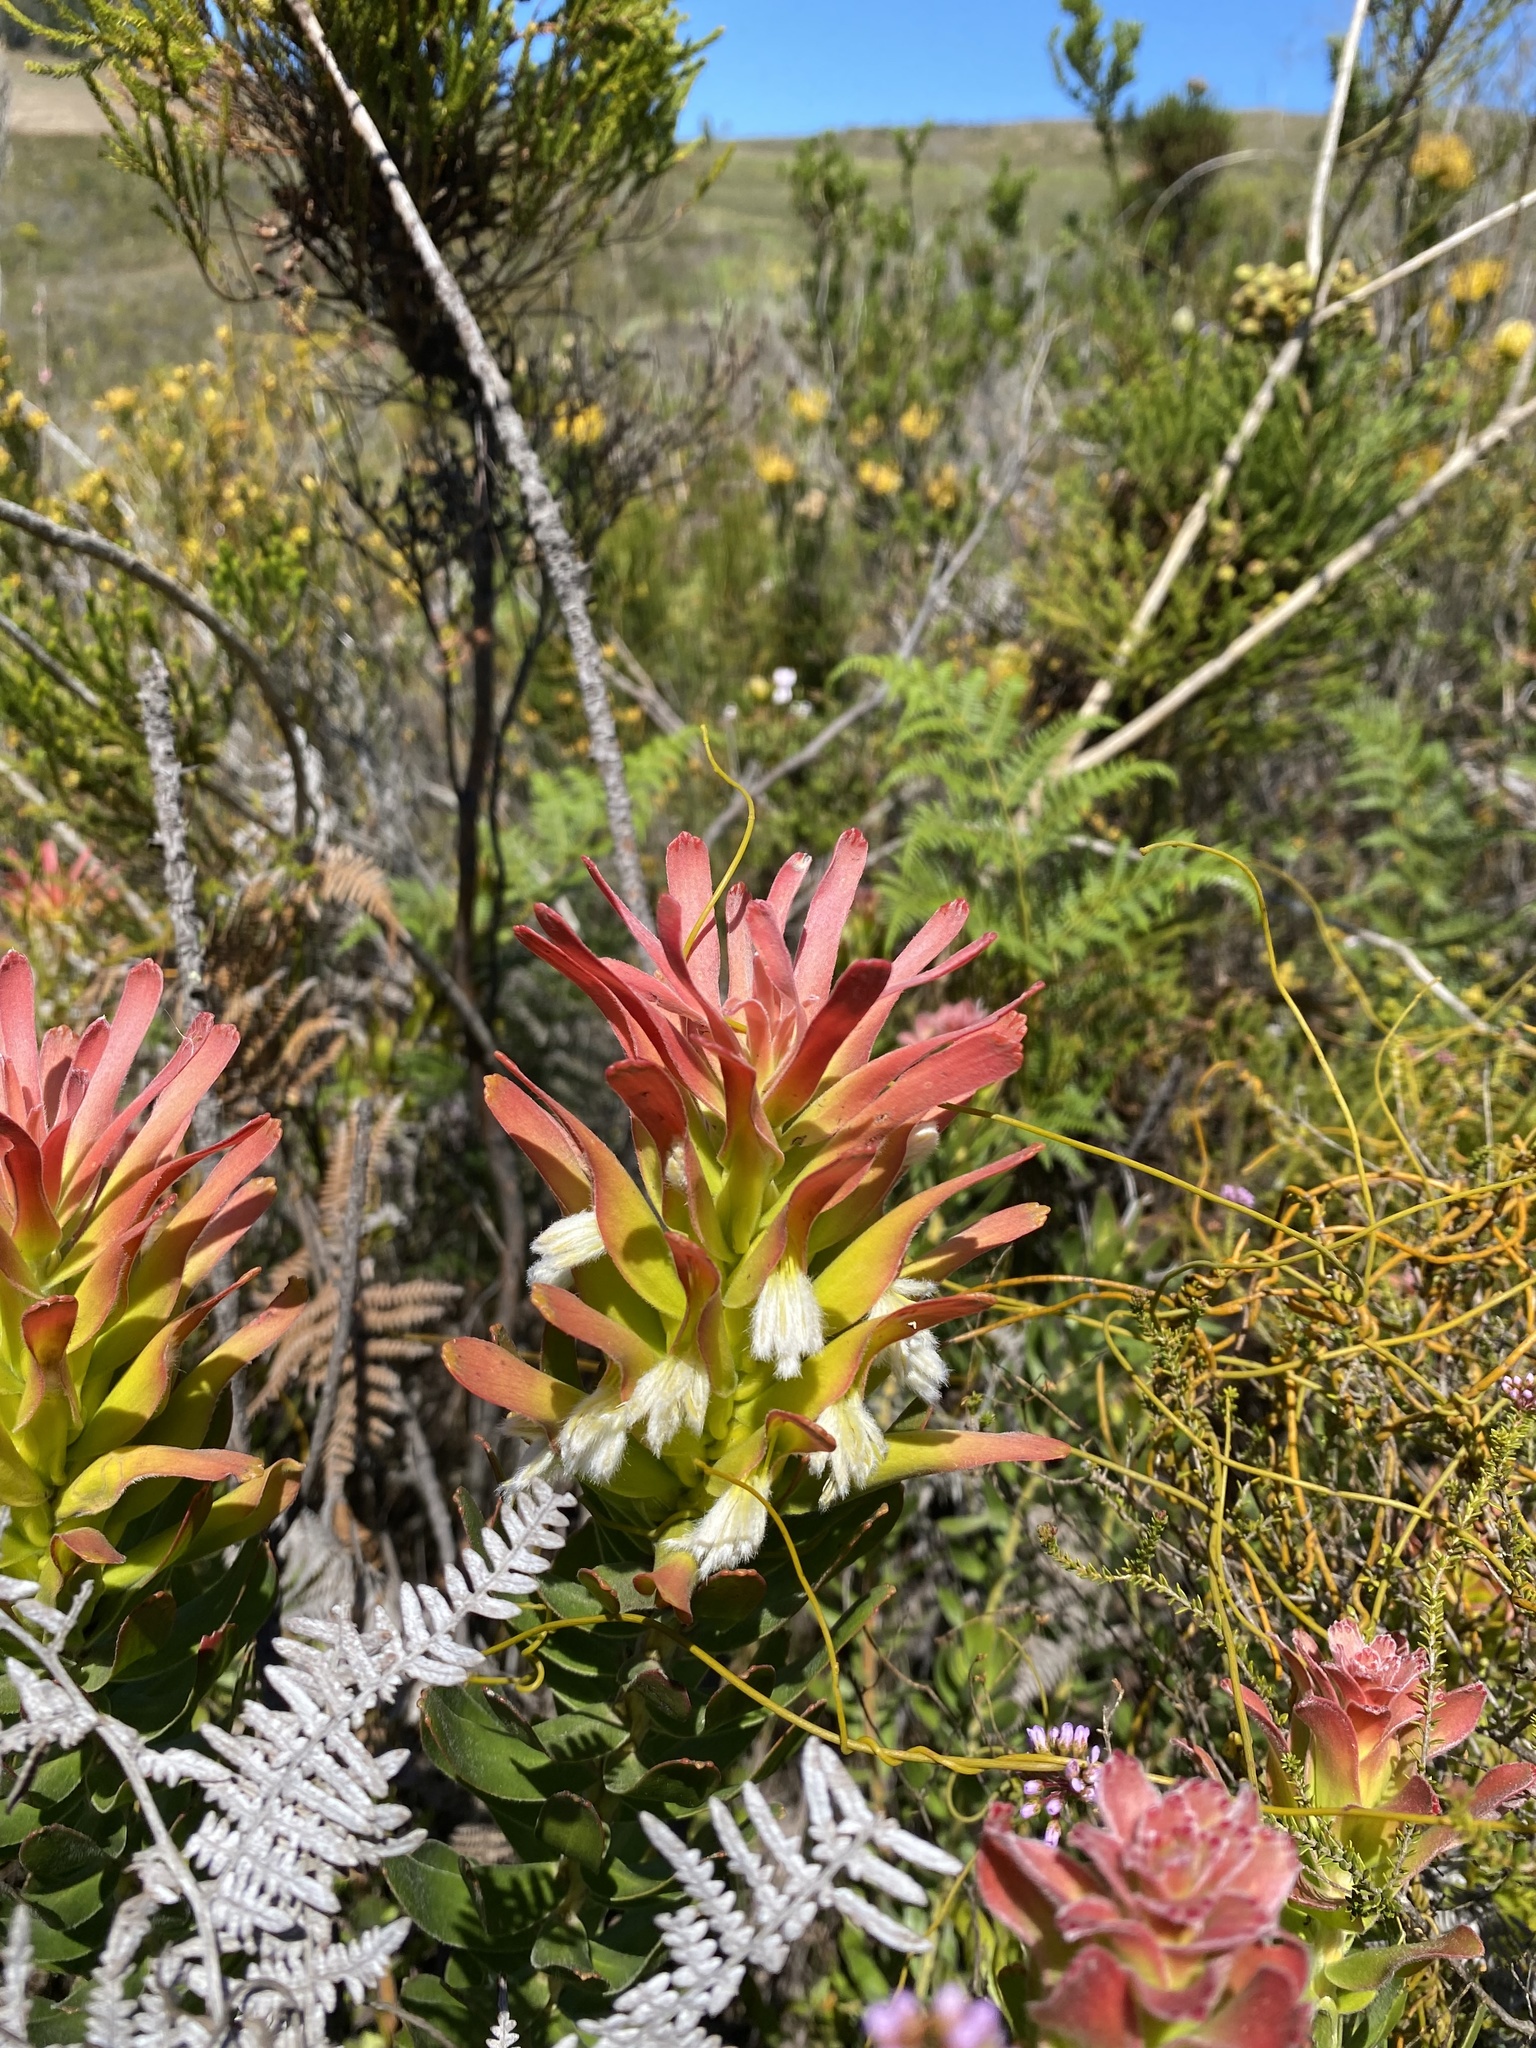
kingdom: Plantae
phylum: Tracheophyta
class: Magnoliopsida
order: Proteales
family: Proteaceae
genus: Mimetes
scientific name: Mimetes cucullatus
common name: Common pagoda
